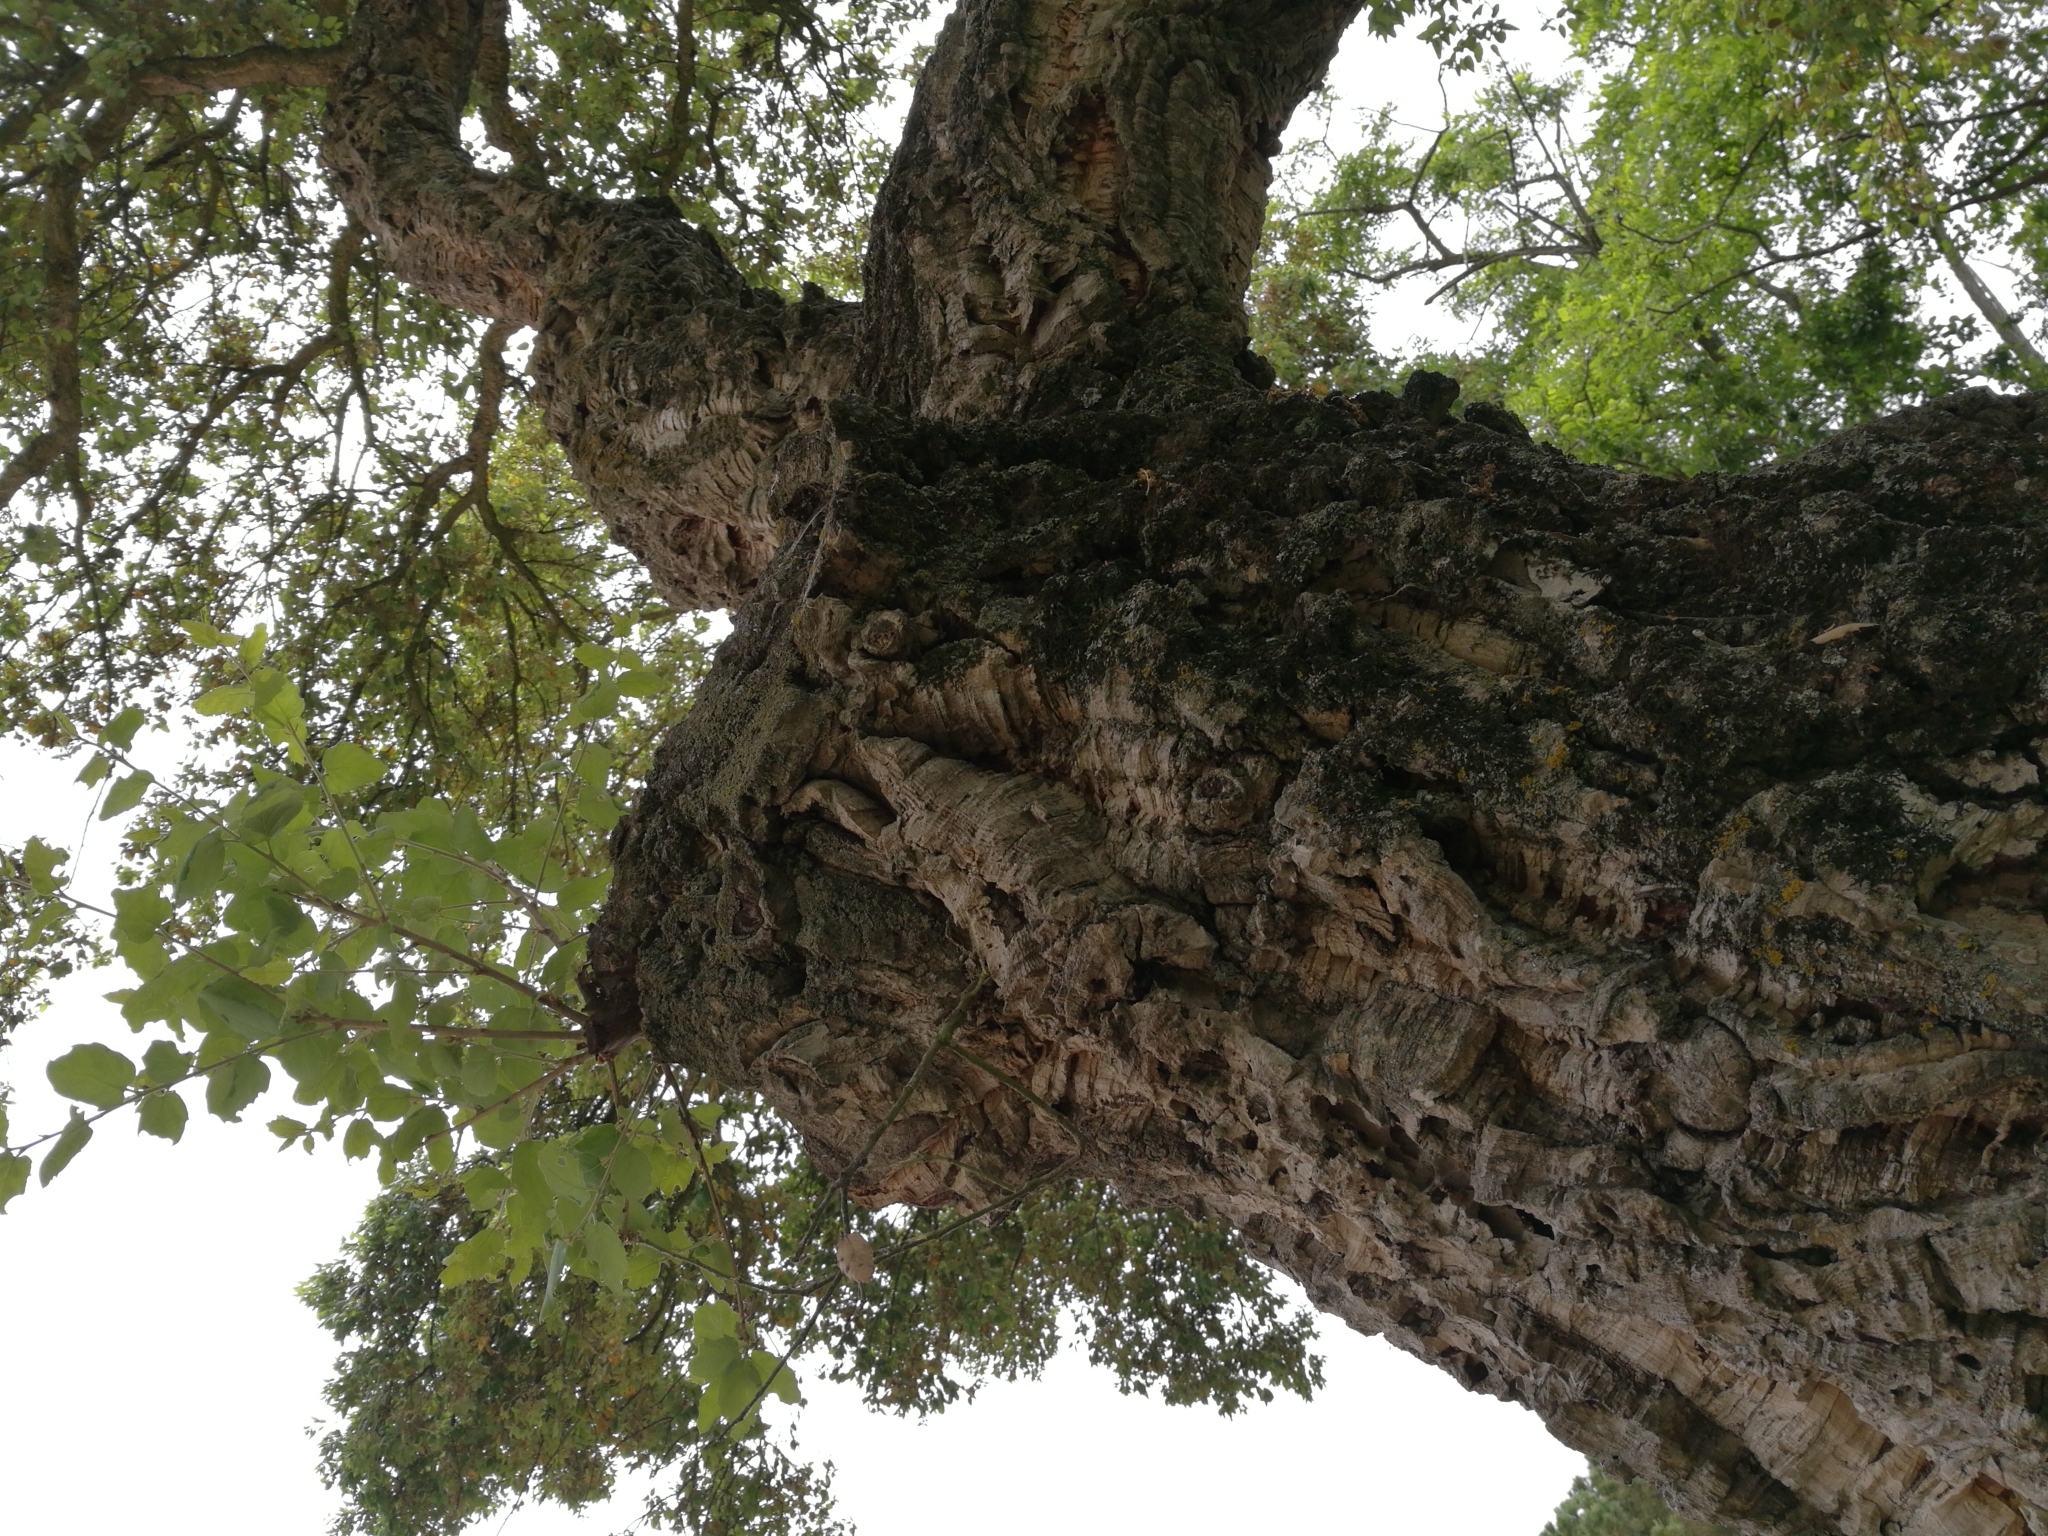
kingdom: Plantae
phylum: Tracheophyta
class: Magnoliopsida
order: Fagales
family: Fagaceae
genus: Quercus
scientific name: Quercus suber
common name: Cork oak
